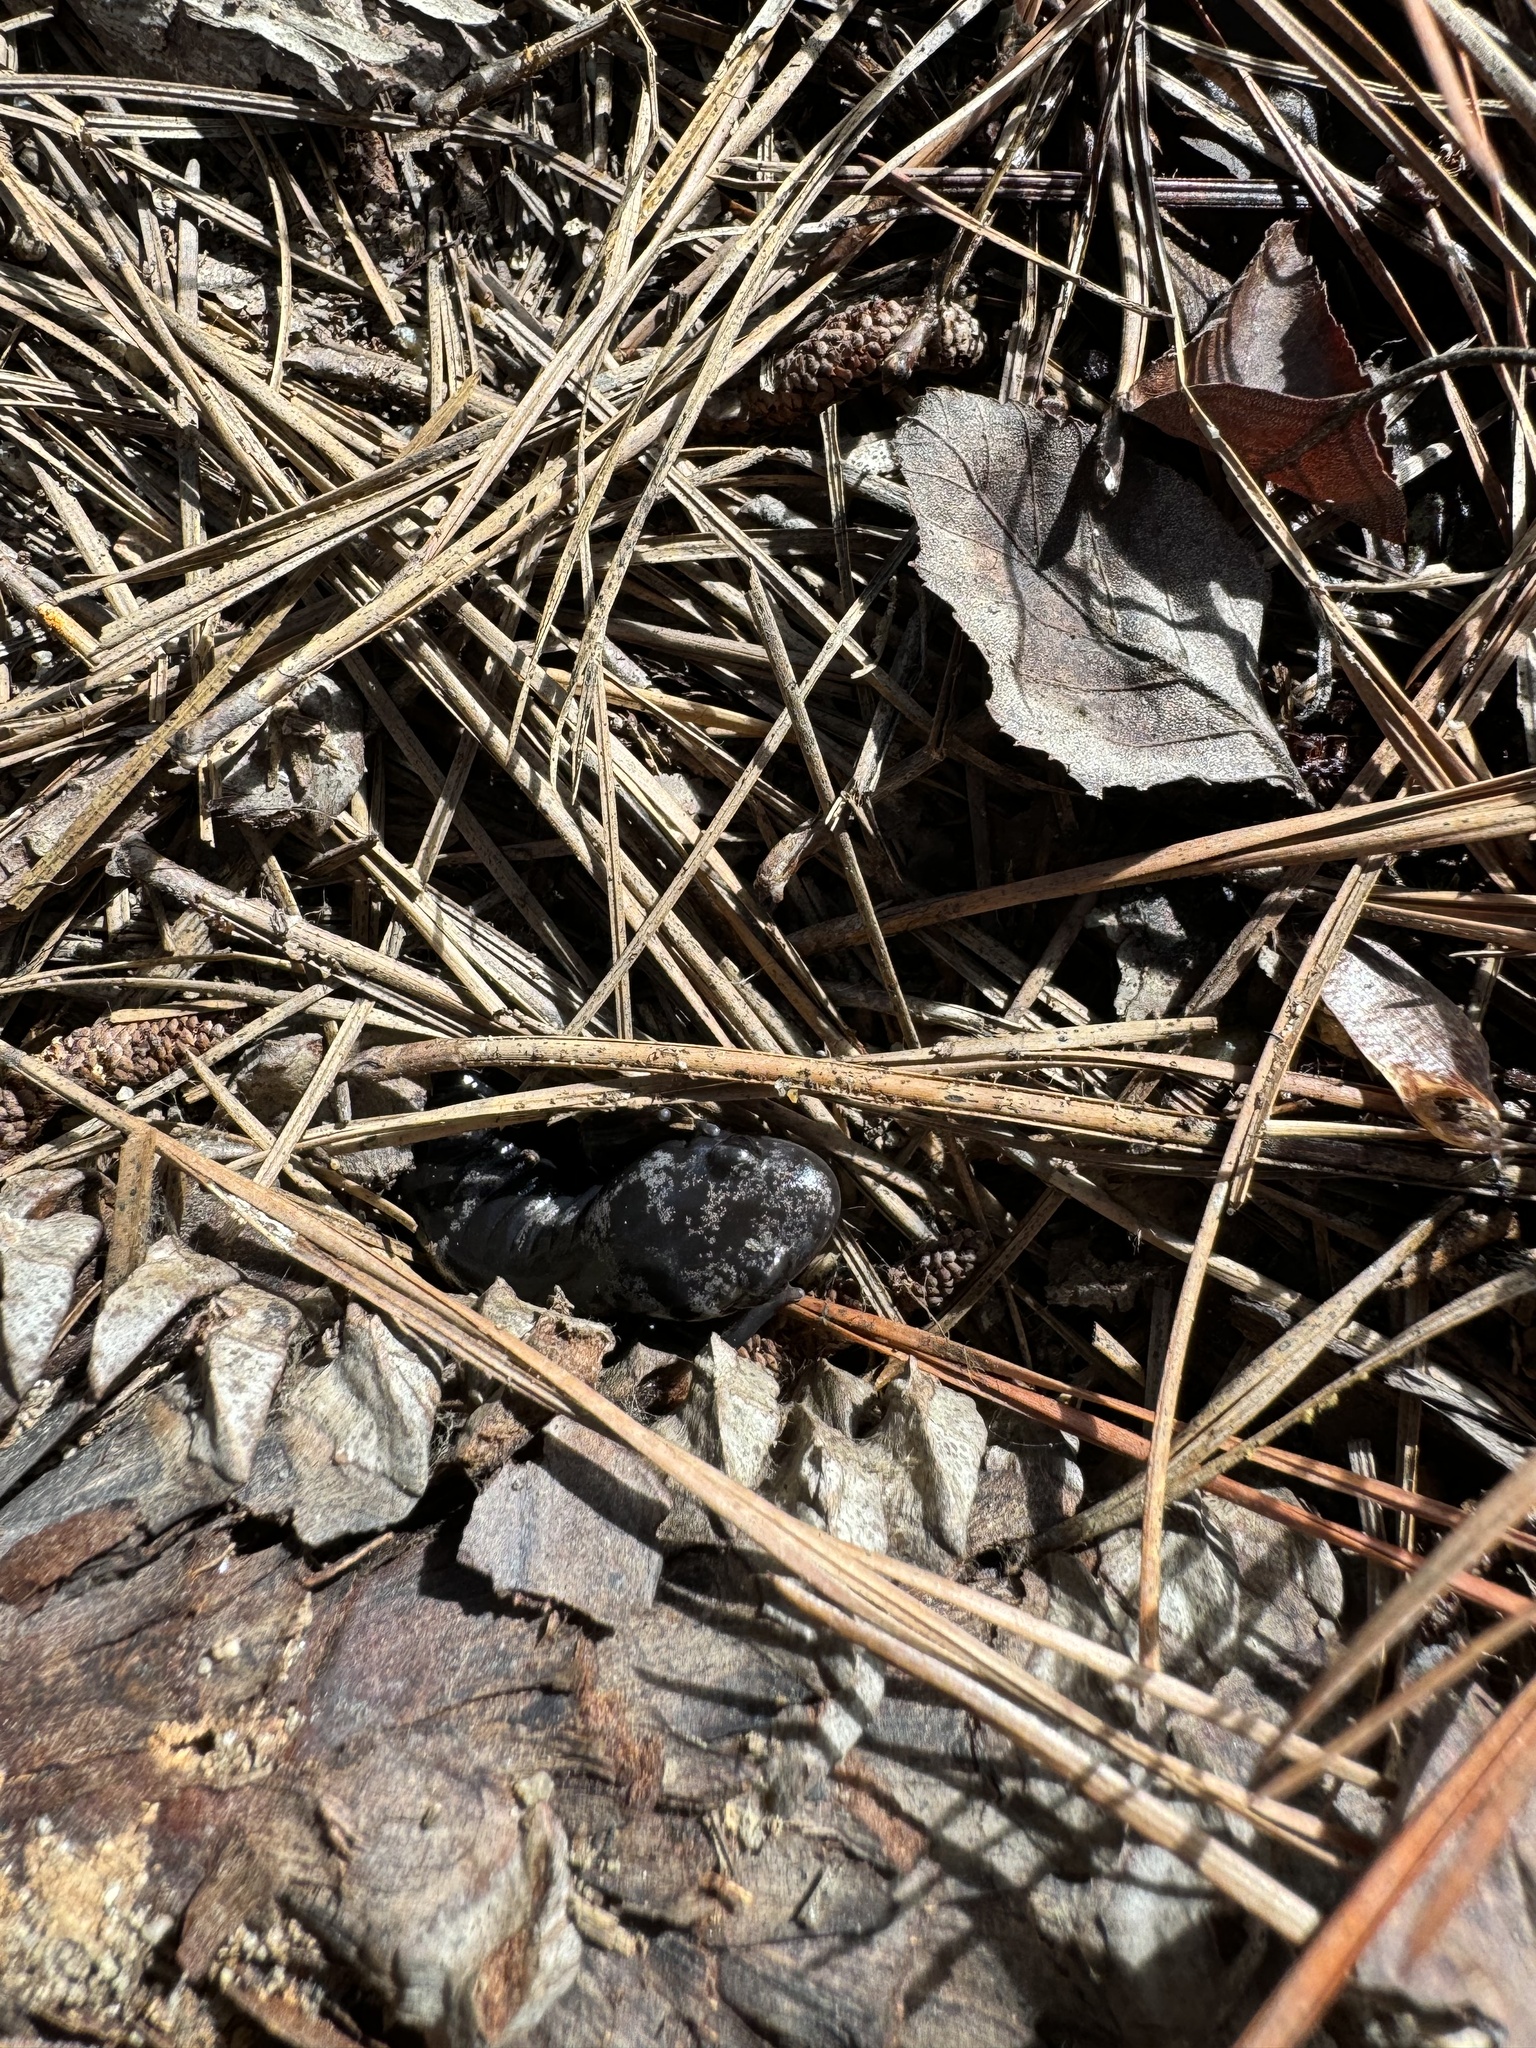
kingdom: Animalia
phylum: Chordata
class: Amphibia
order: Caudata
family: Ambystomatidae
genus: Ambystoma
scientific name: Ambystoma opacum
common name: Marbled salamander
